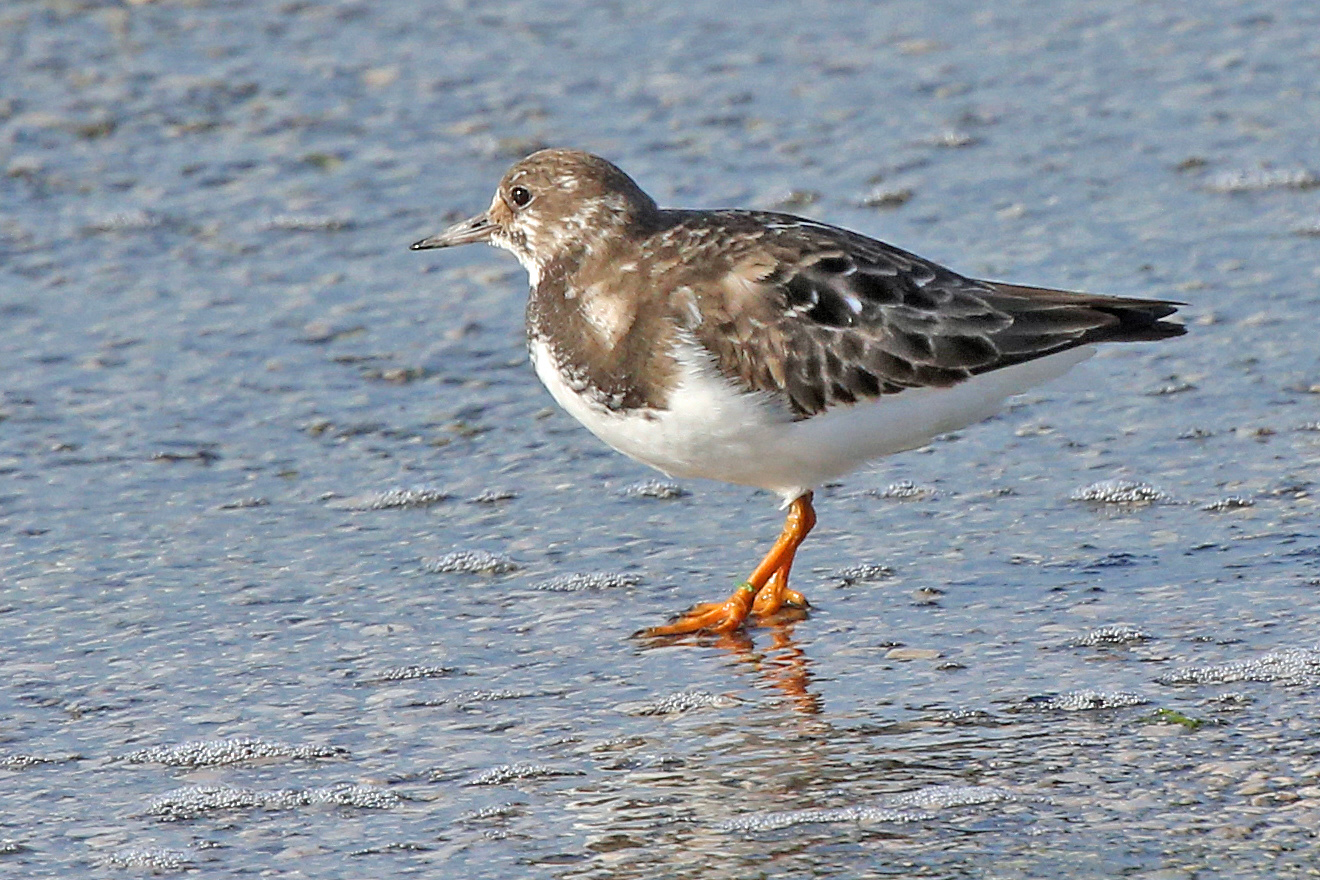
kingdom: Animalia
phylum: Chordata
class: Aves
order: Charadriiformes
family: Scolopacidae
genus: Arenaria
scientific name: Arenaria interpres
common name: Ruddy turnstone
